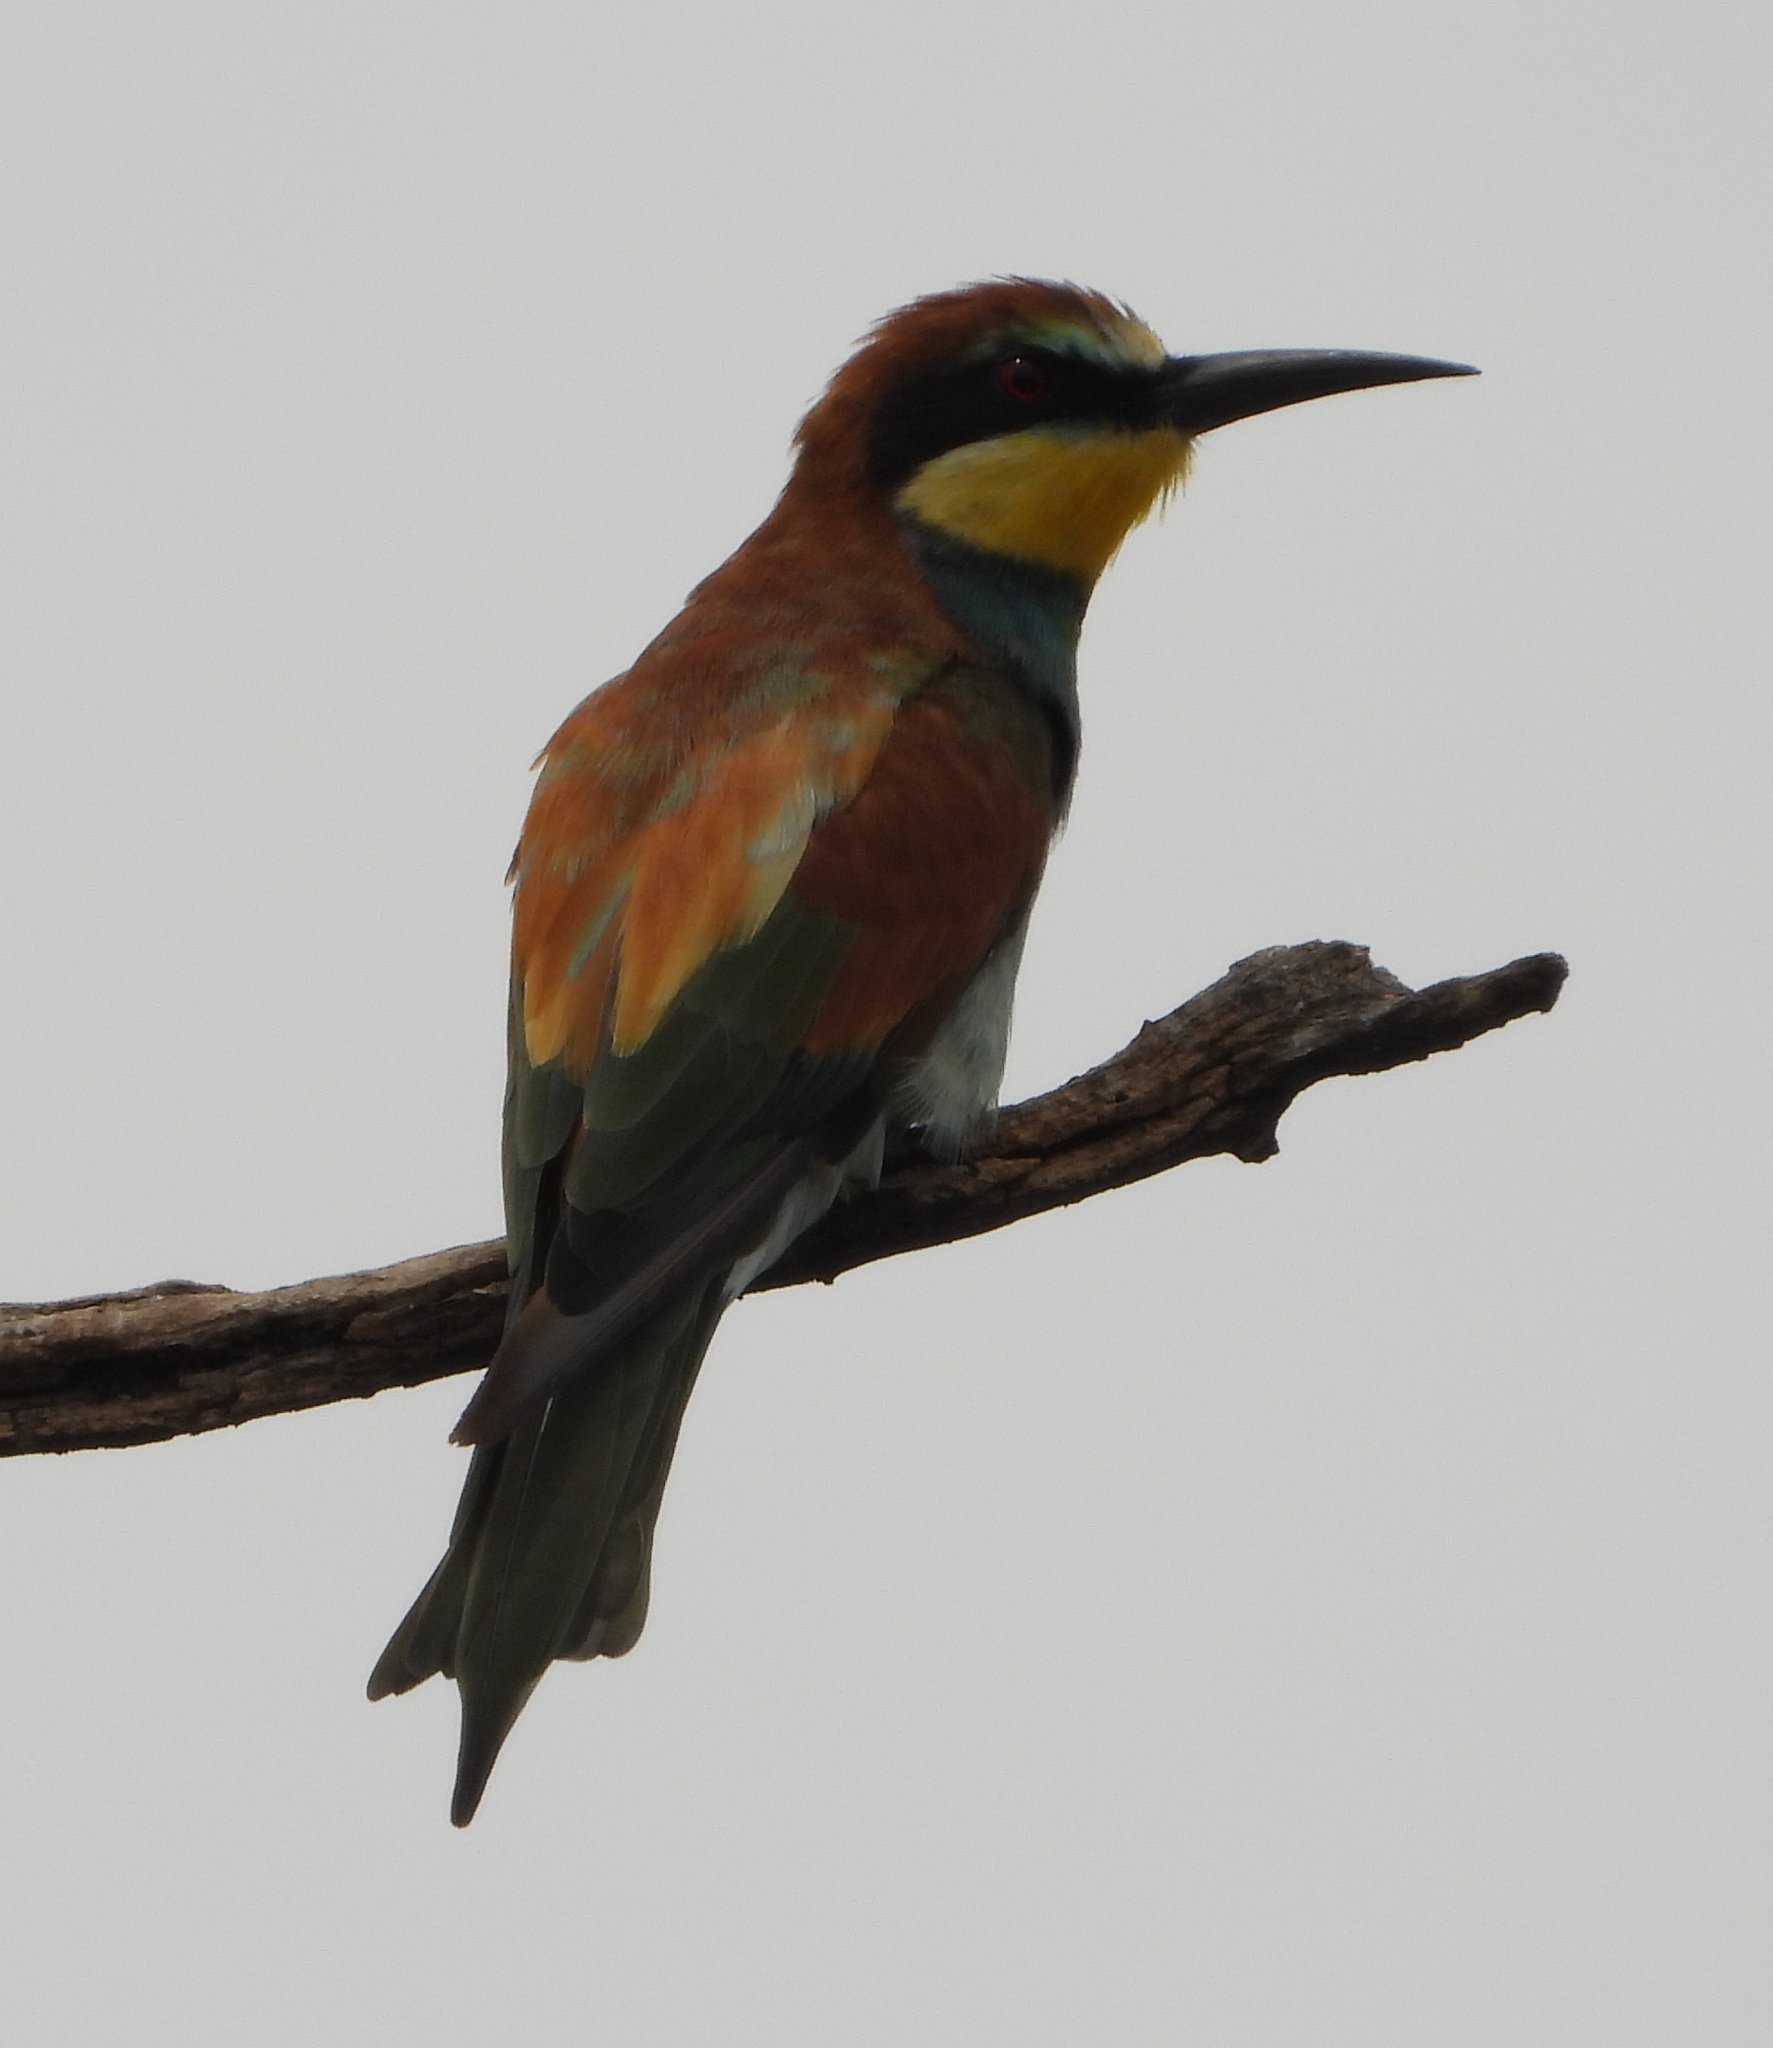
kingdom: Animalia
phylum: Chordata
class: Aves
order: Coraciiformes
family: Meropidae
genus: Merops
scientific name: Merops apiaster
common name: European bee-eater
